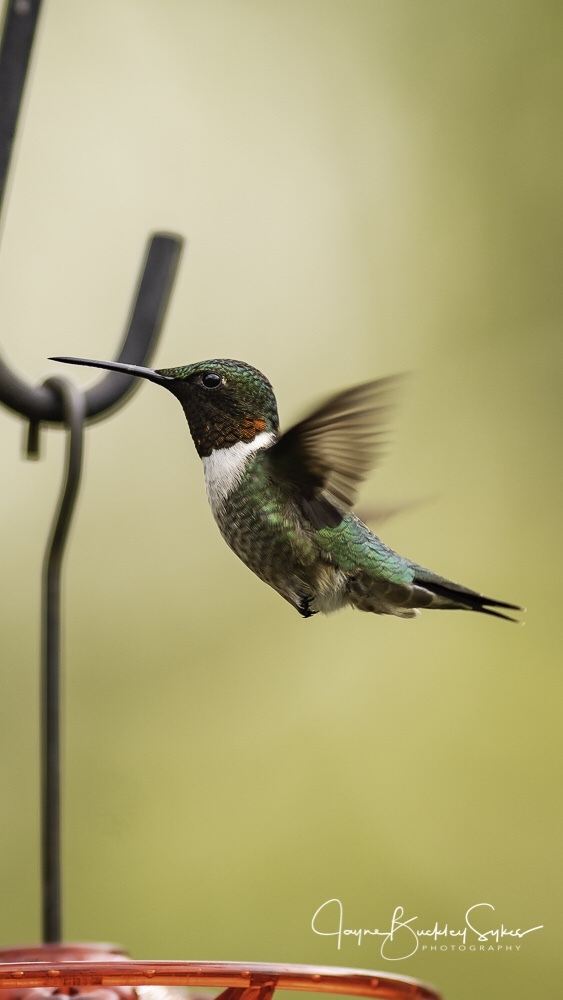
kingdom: Animalia
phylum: Chordata
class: Aves
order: Apodiformes
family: Trochilidae
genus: Archilochus
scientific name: Archilochus colubris
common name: Ruby-throated hummingbird
